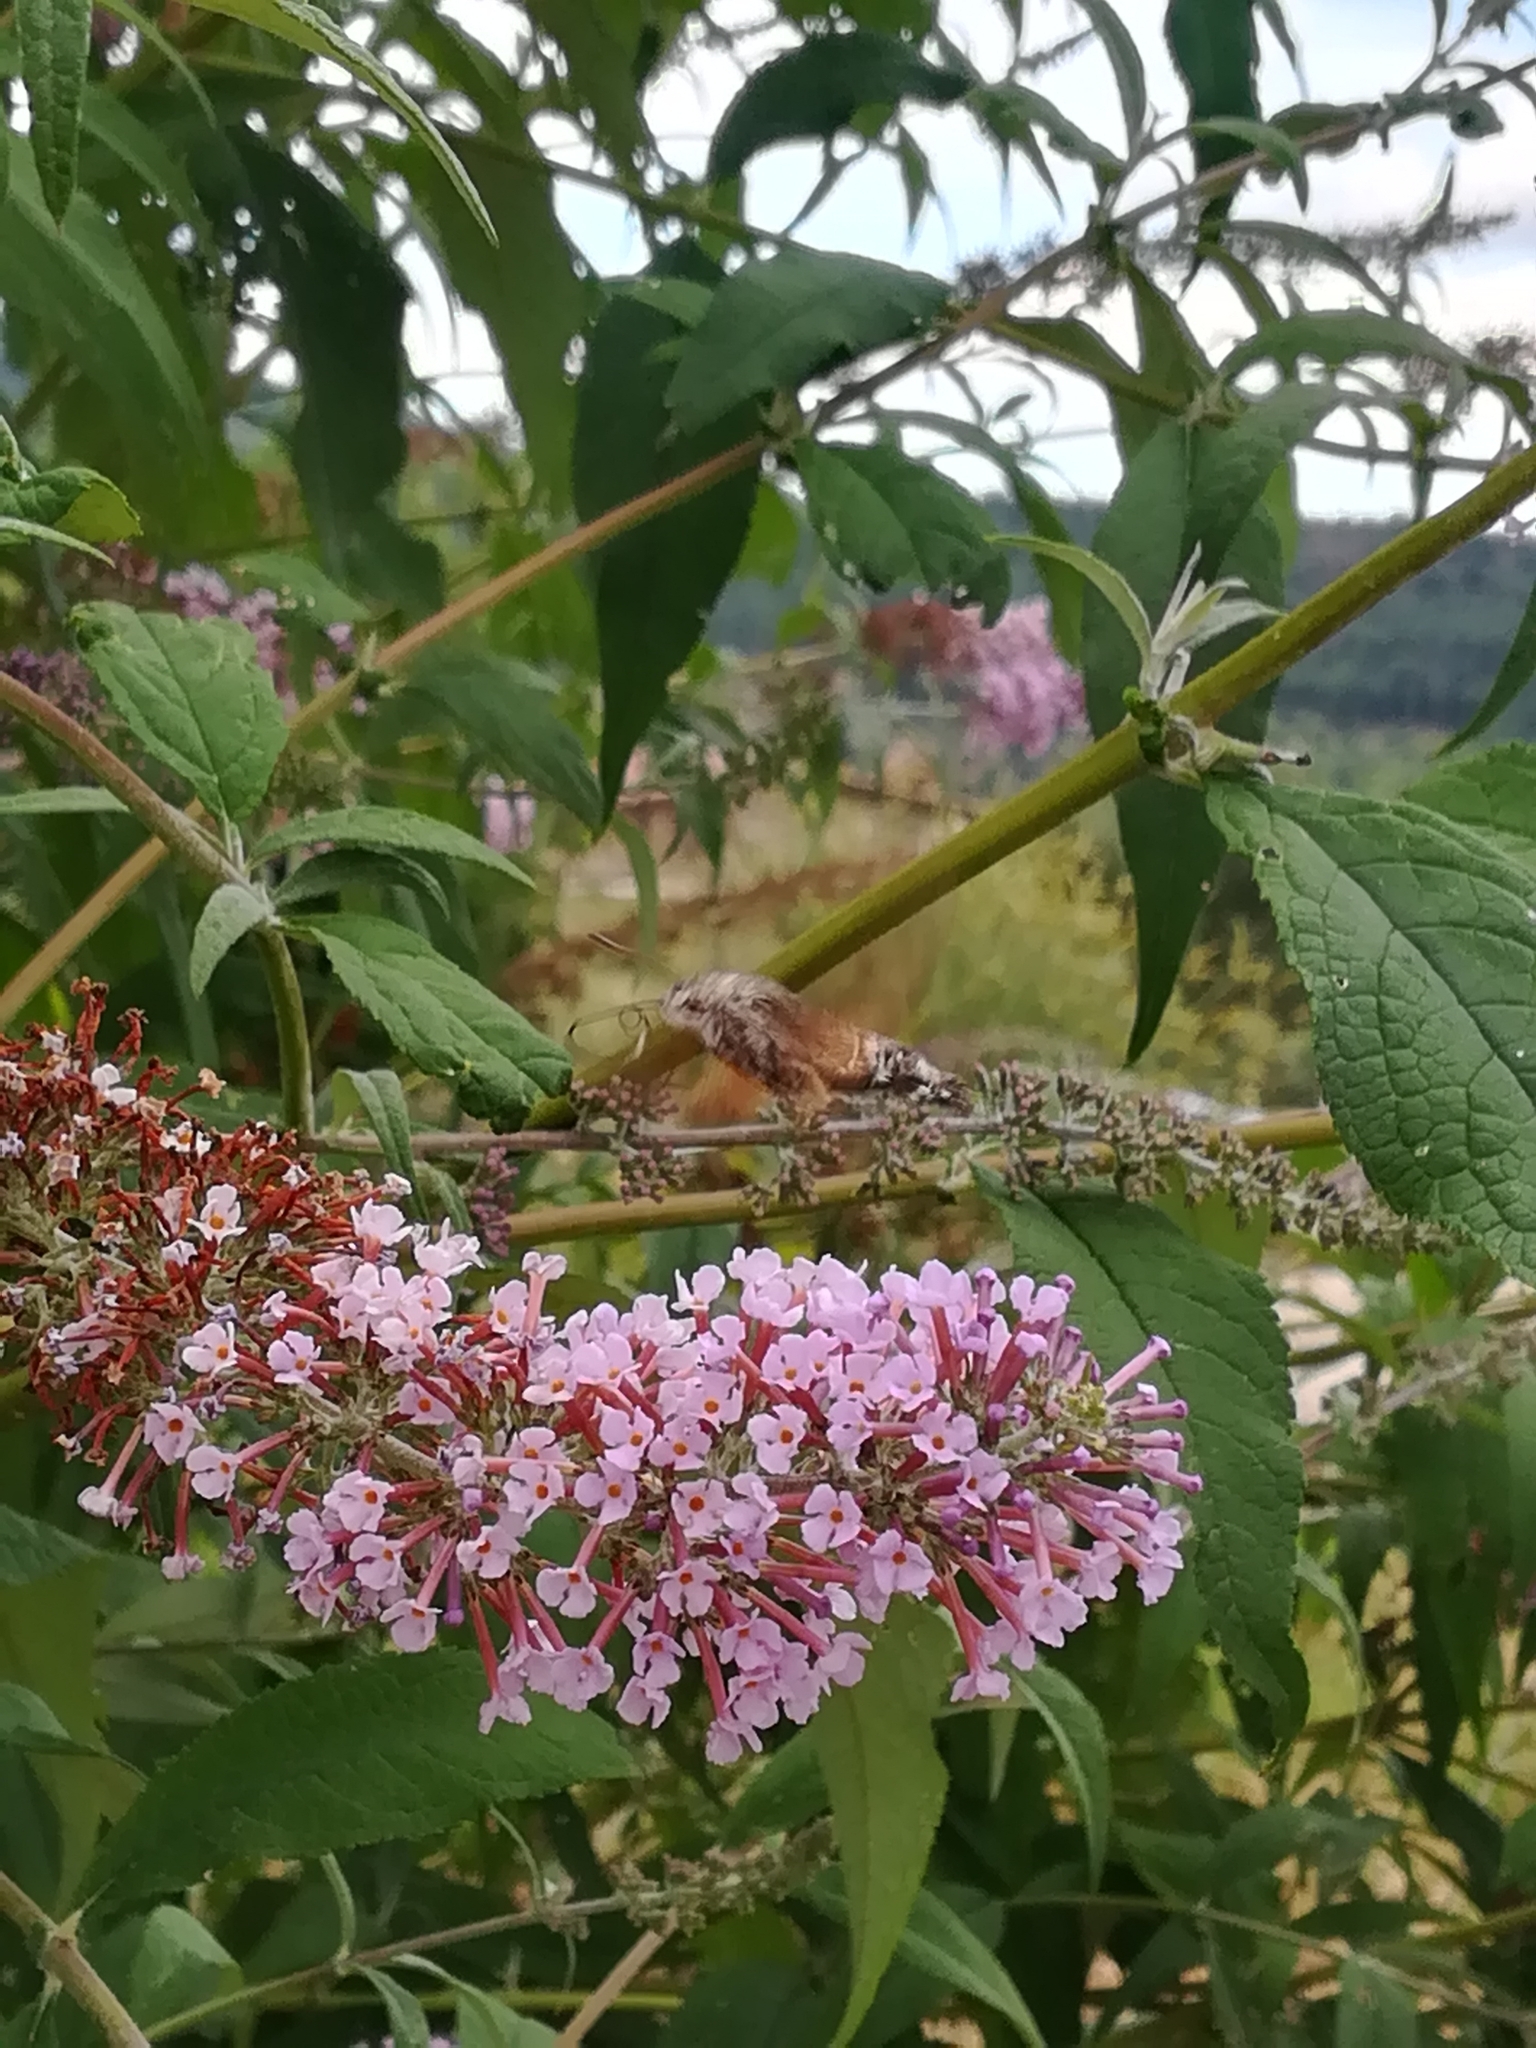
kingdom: Animalia
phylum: Arthropoda
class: Insecta
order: Lepidoptera
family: Sphingidae
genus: Macroglossum
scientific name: Macroglossum stellatarum
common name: Humming-bird hawk-moth
